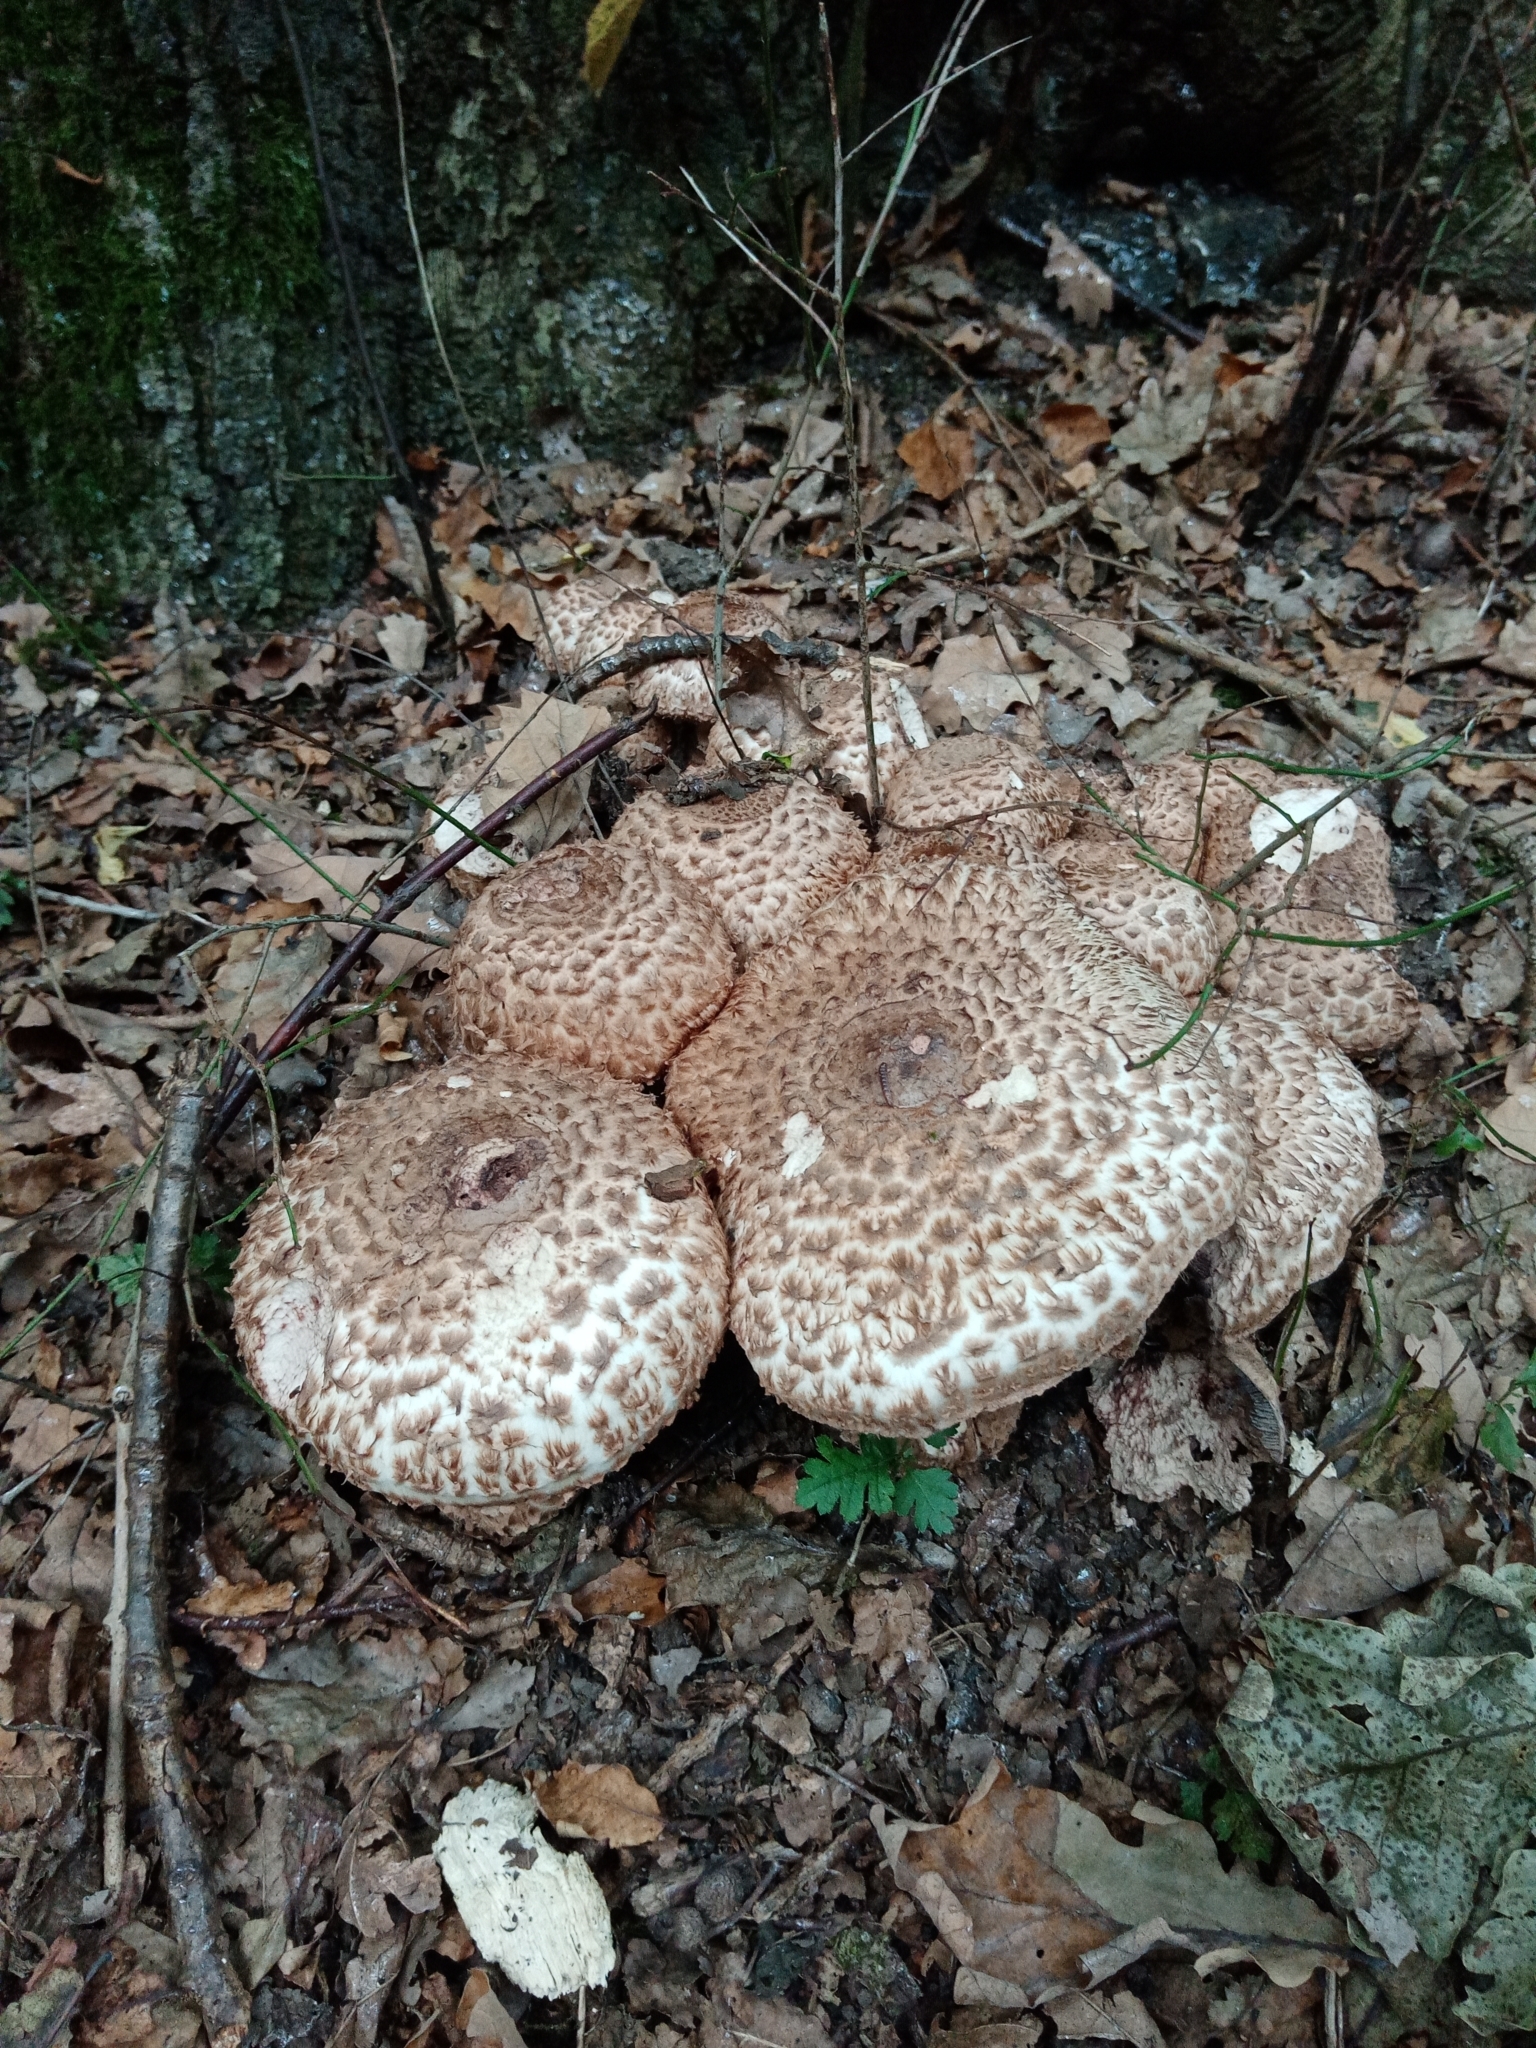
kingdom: Fungi
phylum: Basidiomycota
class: Agaricomycetes
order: Agaricales
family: Agaricaceae
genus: Agaricus
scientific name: Agaricus bohusii
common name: Medusa mushroom
